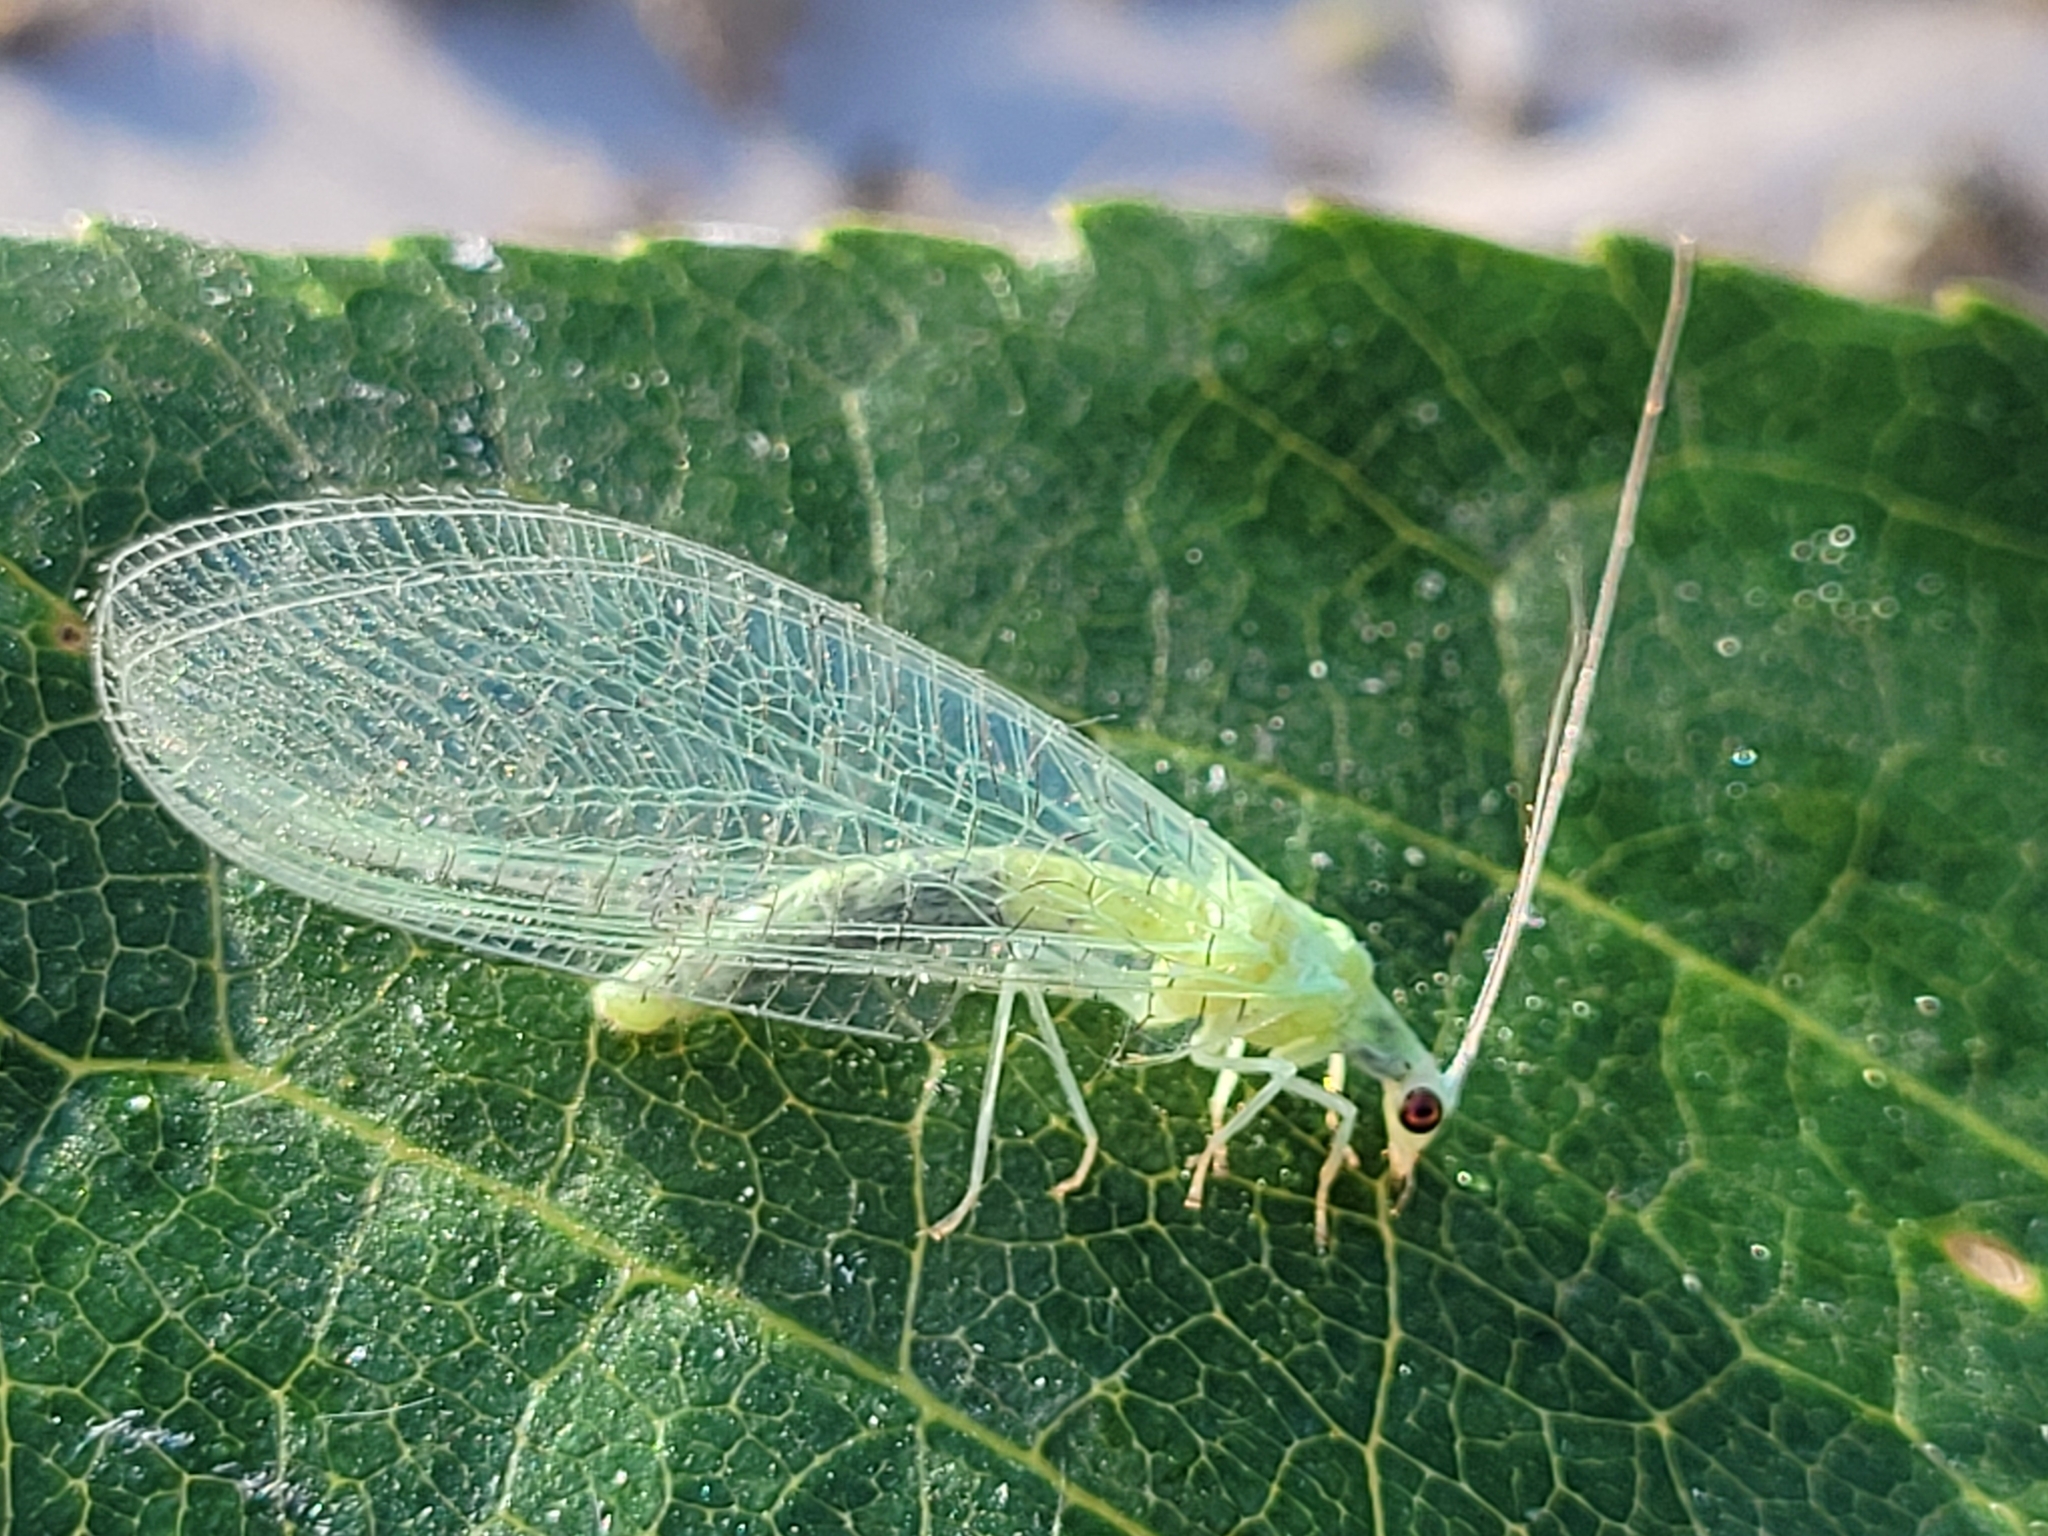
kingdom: Animalia
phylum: Arthropoda
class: Insecta
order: Neuroptera
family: Chrysopidae
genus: Chrysopa
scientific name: Chrysopa nigricornis
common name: Black-horned green lacewing
